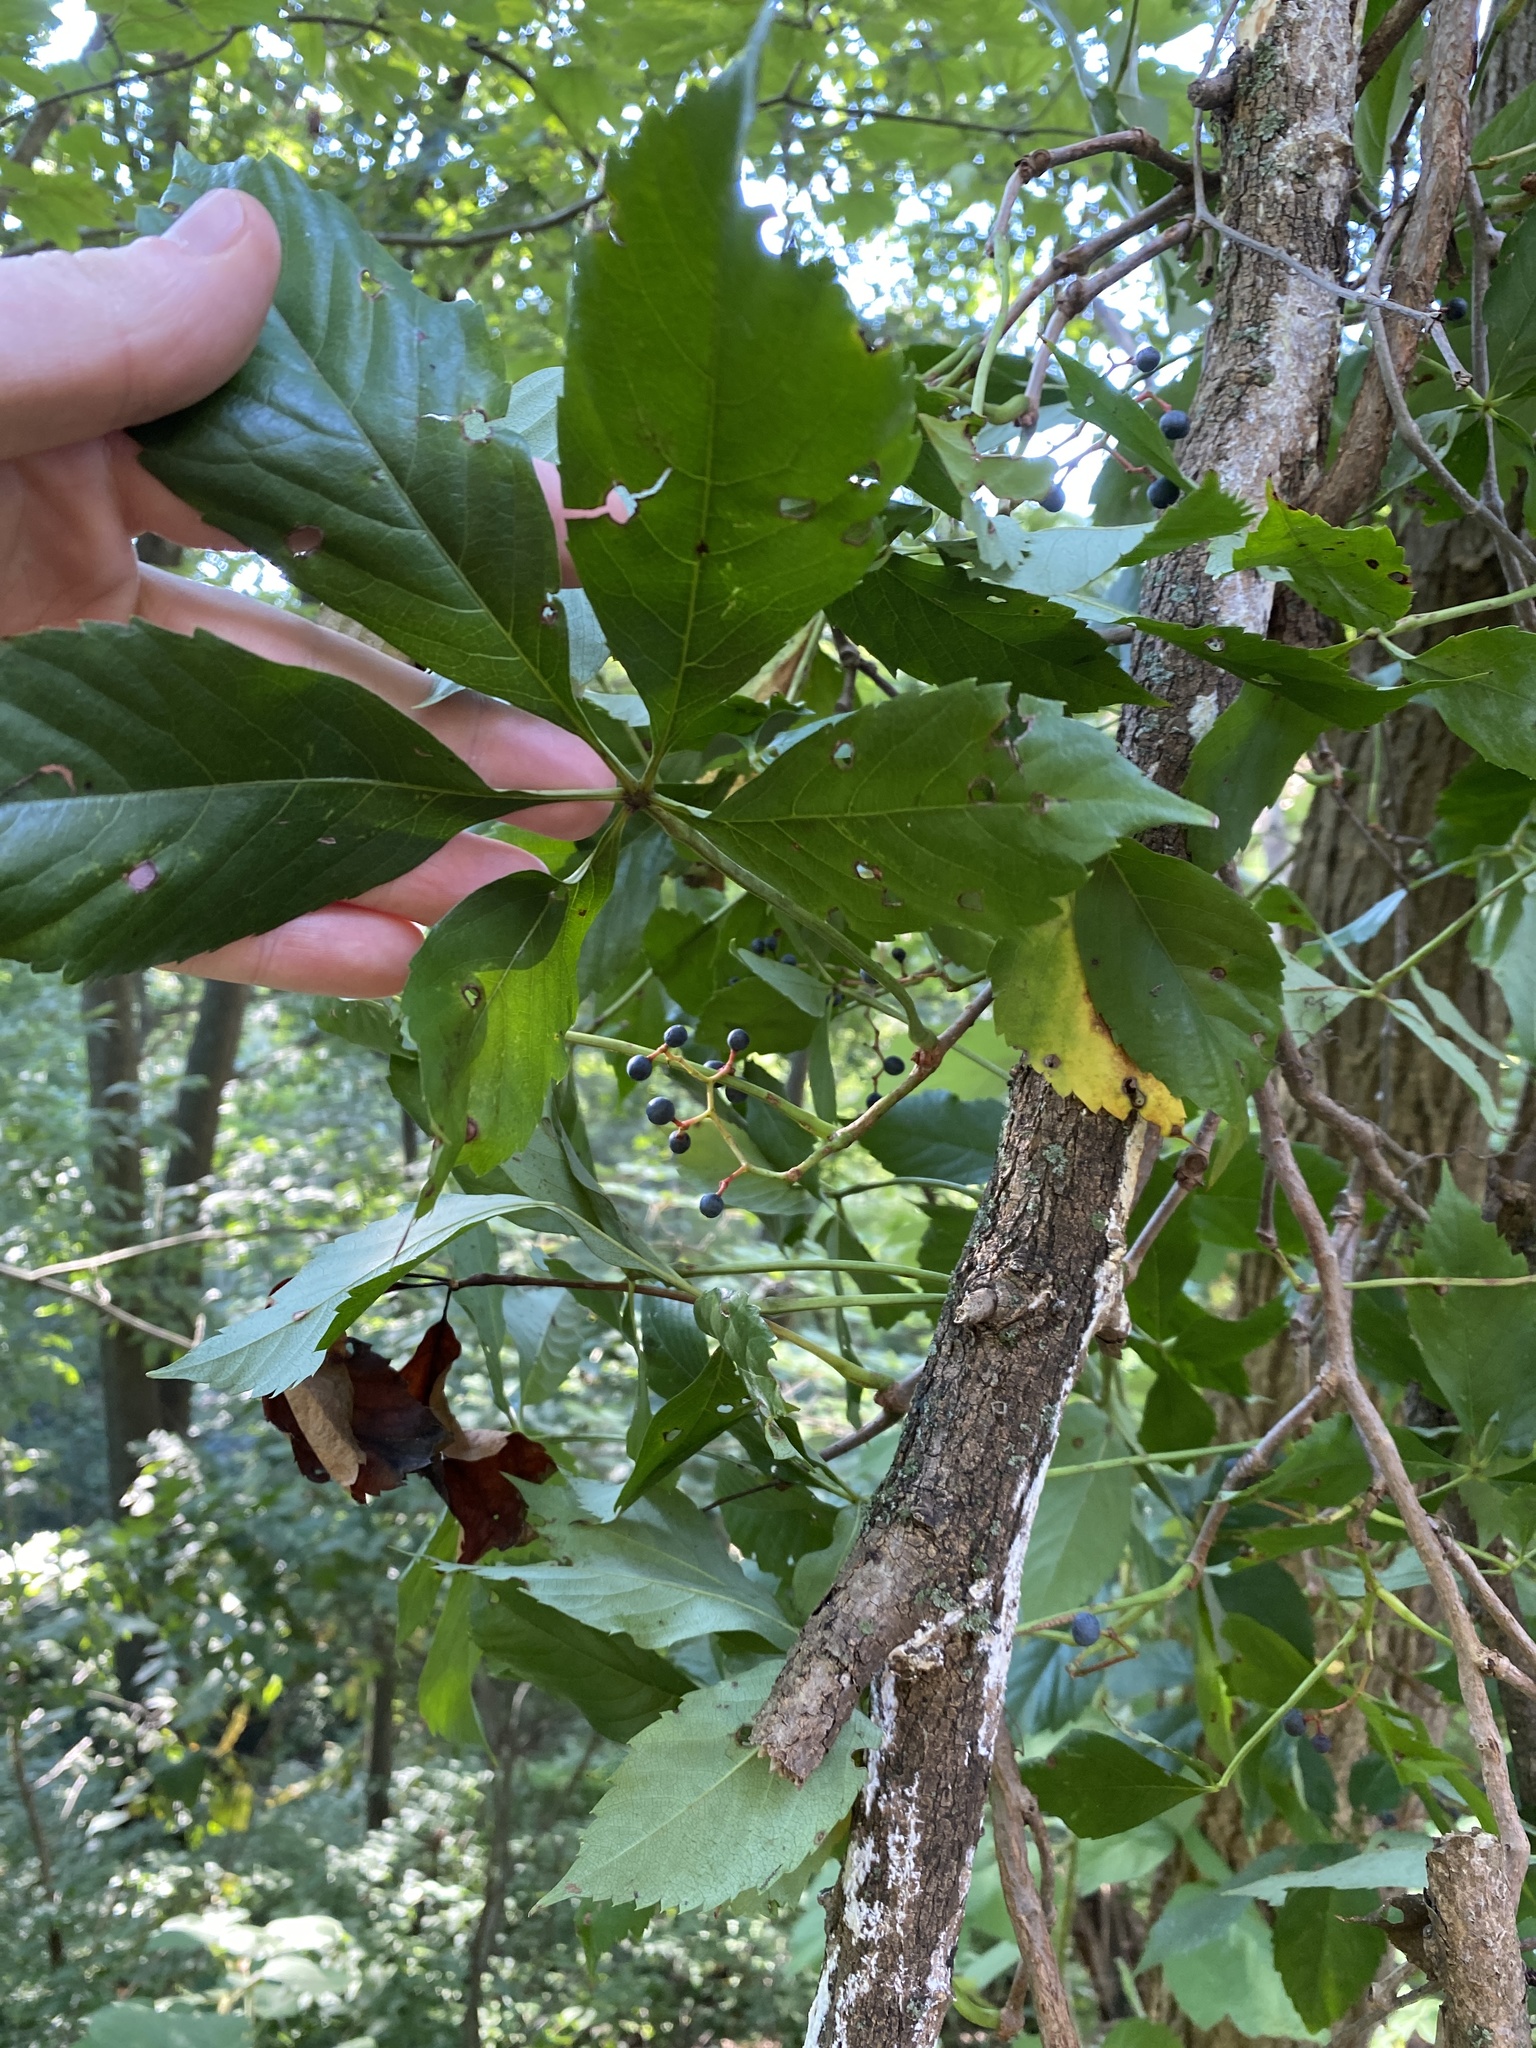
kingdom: Plantae
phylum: Tracheophyta
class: Magnoliopsida
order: Vitales
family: Vitaceae
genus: Parthenocissus
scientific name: Parthenocissus quinquefolia
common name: Virginia-creeper
